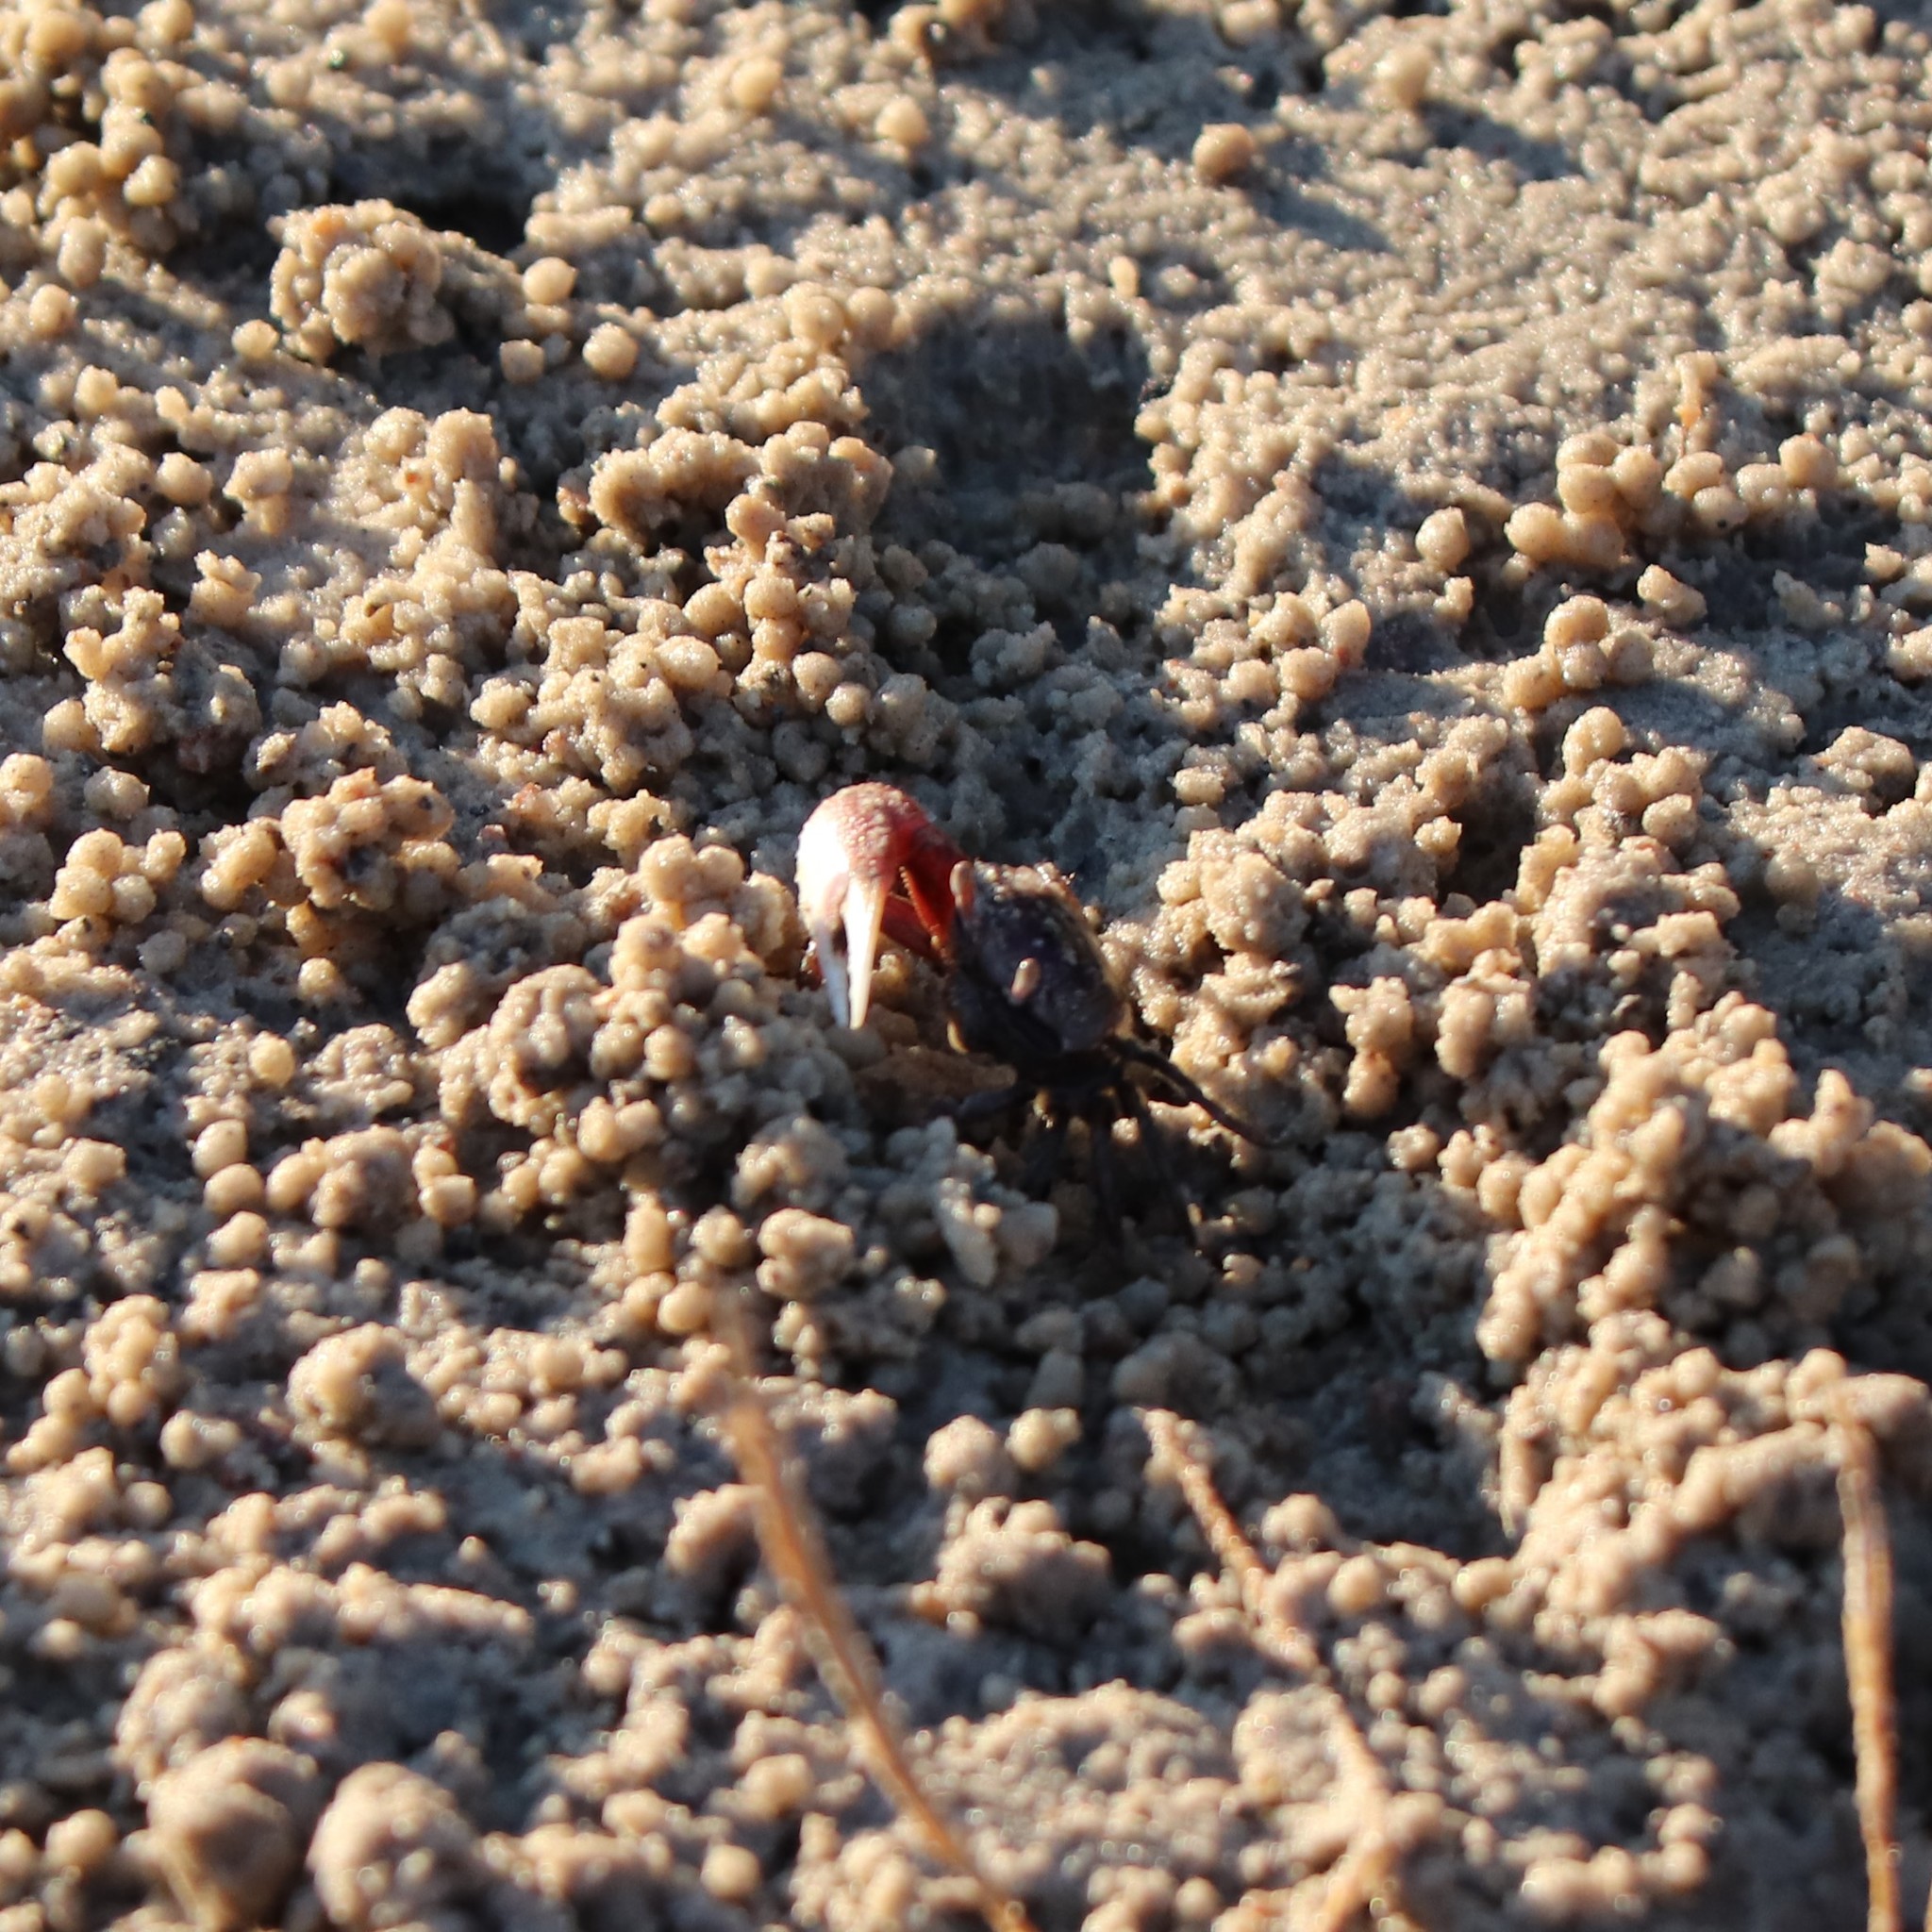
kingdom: Animalia
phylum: Arthropoda
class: Malacostraca
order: Decapoda
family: Ocypodidae
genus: Leptuca
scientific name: Leptuca pugilator
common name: Atlantic sand fiddler crab
